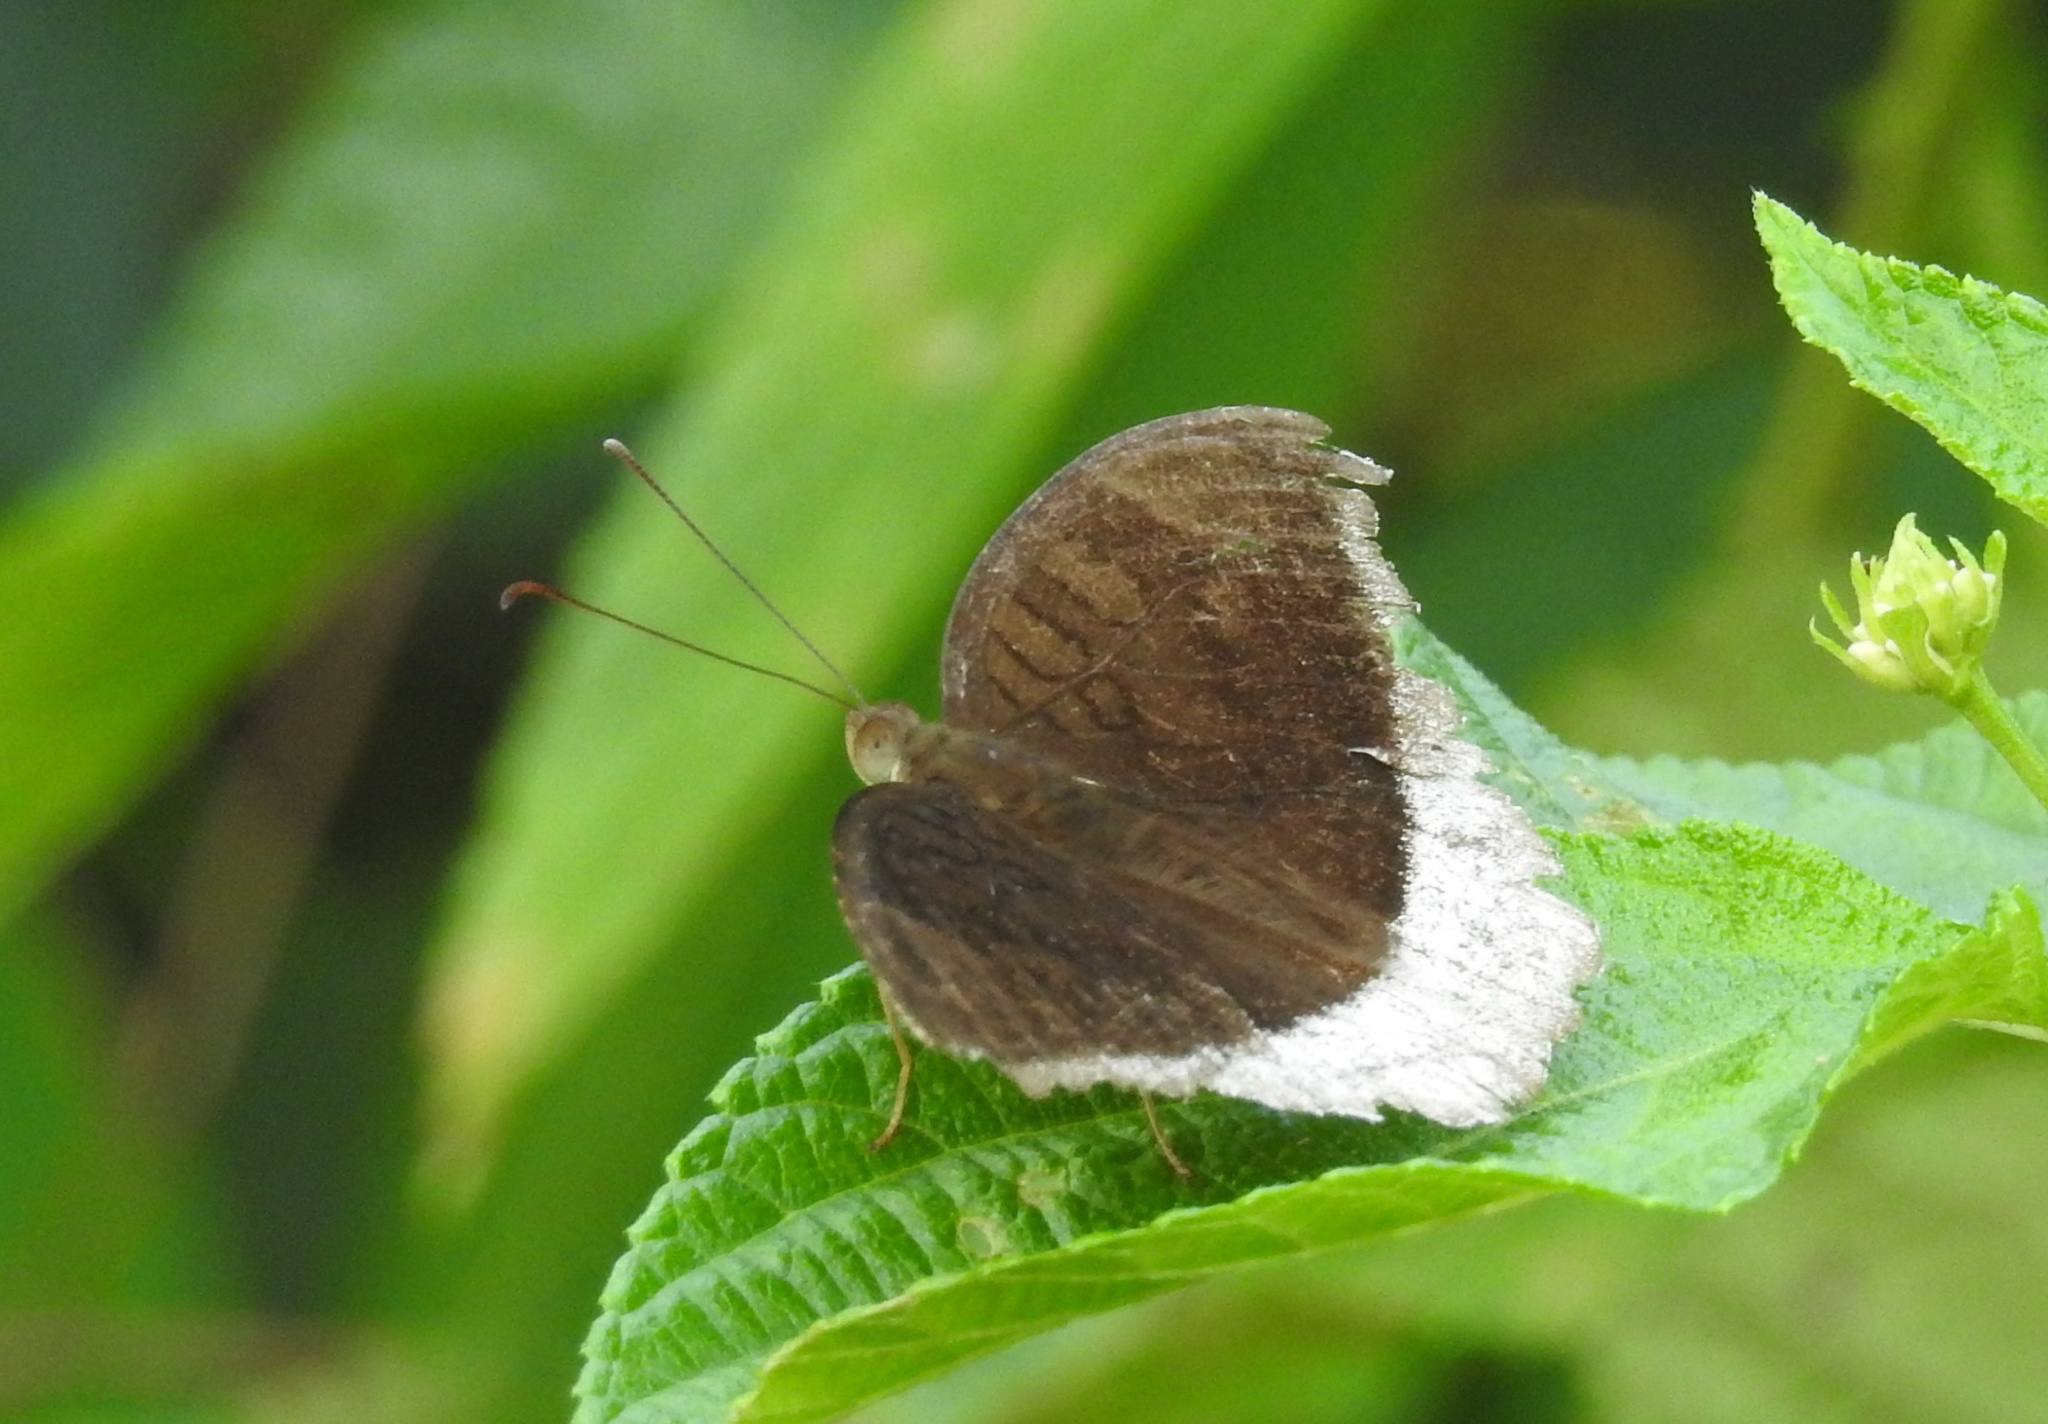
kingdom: Animalia
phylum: Arthropoda
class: Insecta
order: Lepidoptera
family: Nymphalidae
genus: Tanaecia
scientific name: Tanaecia lepidea
